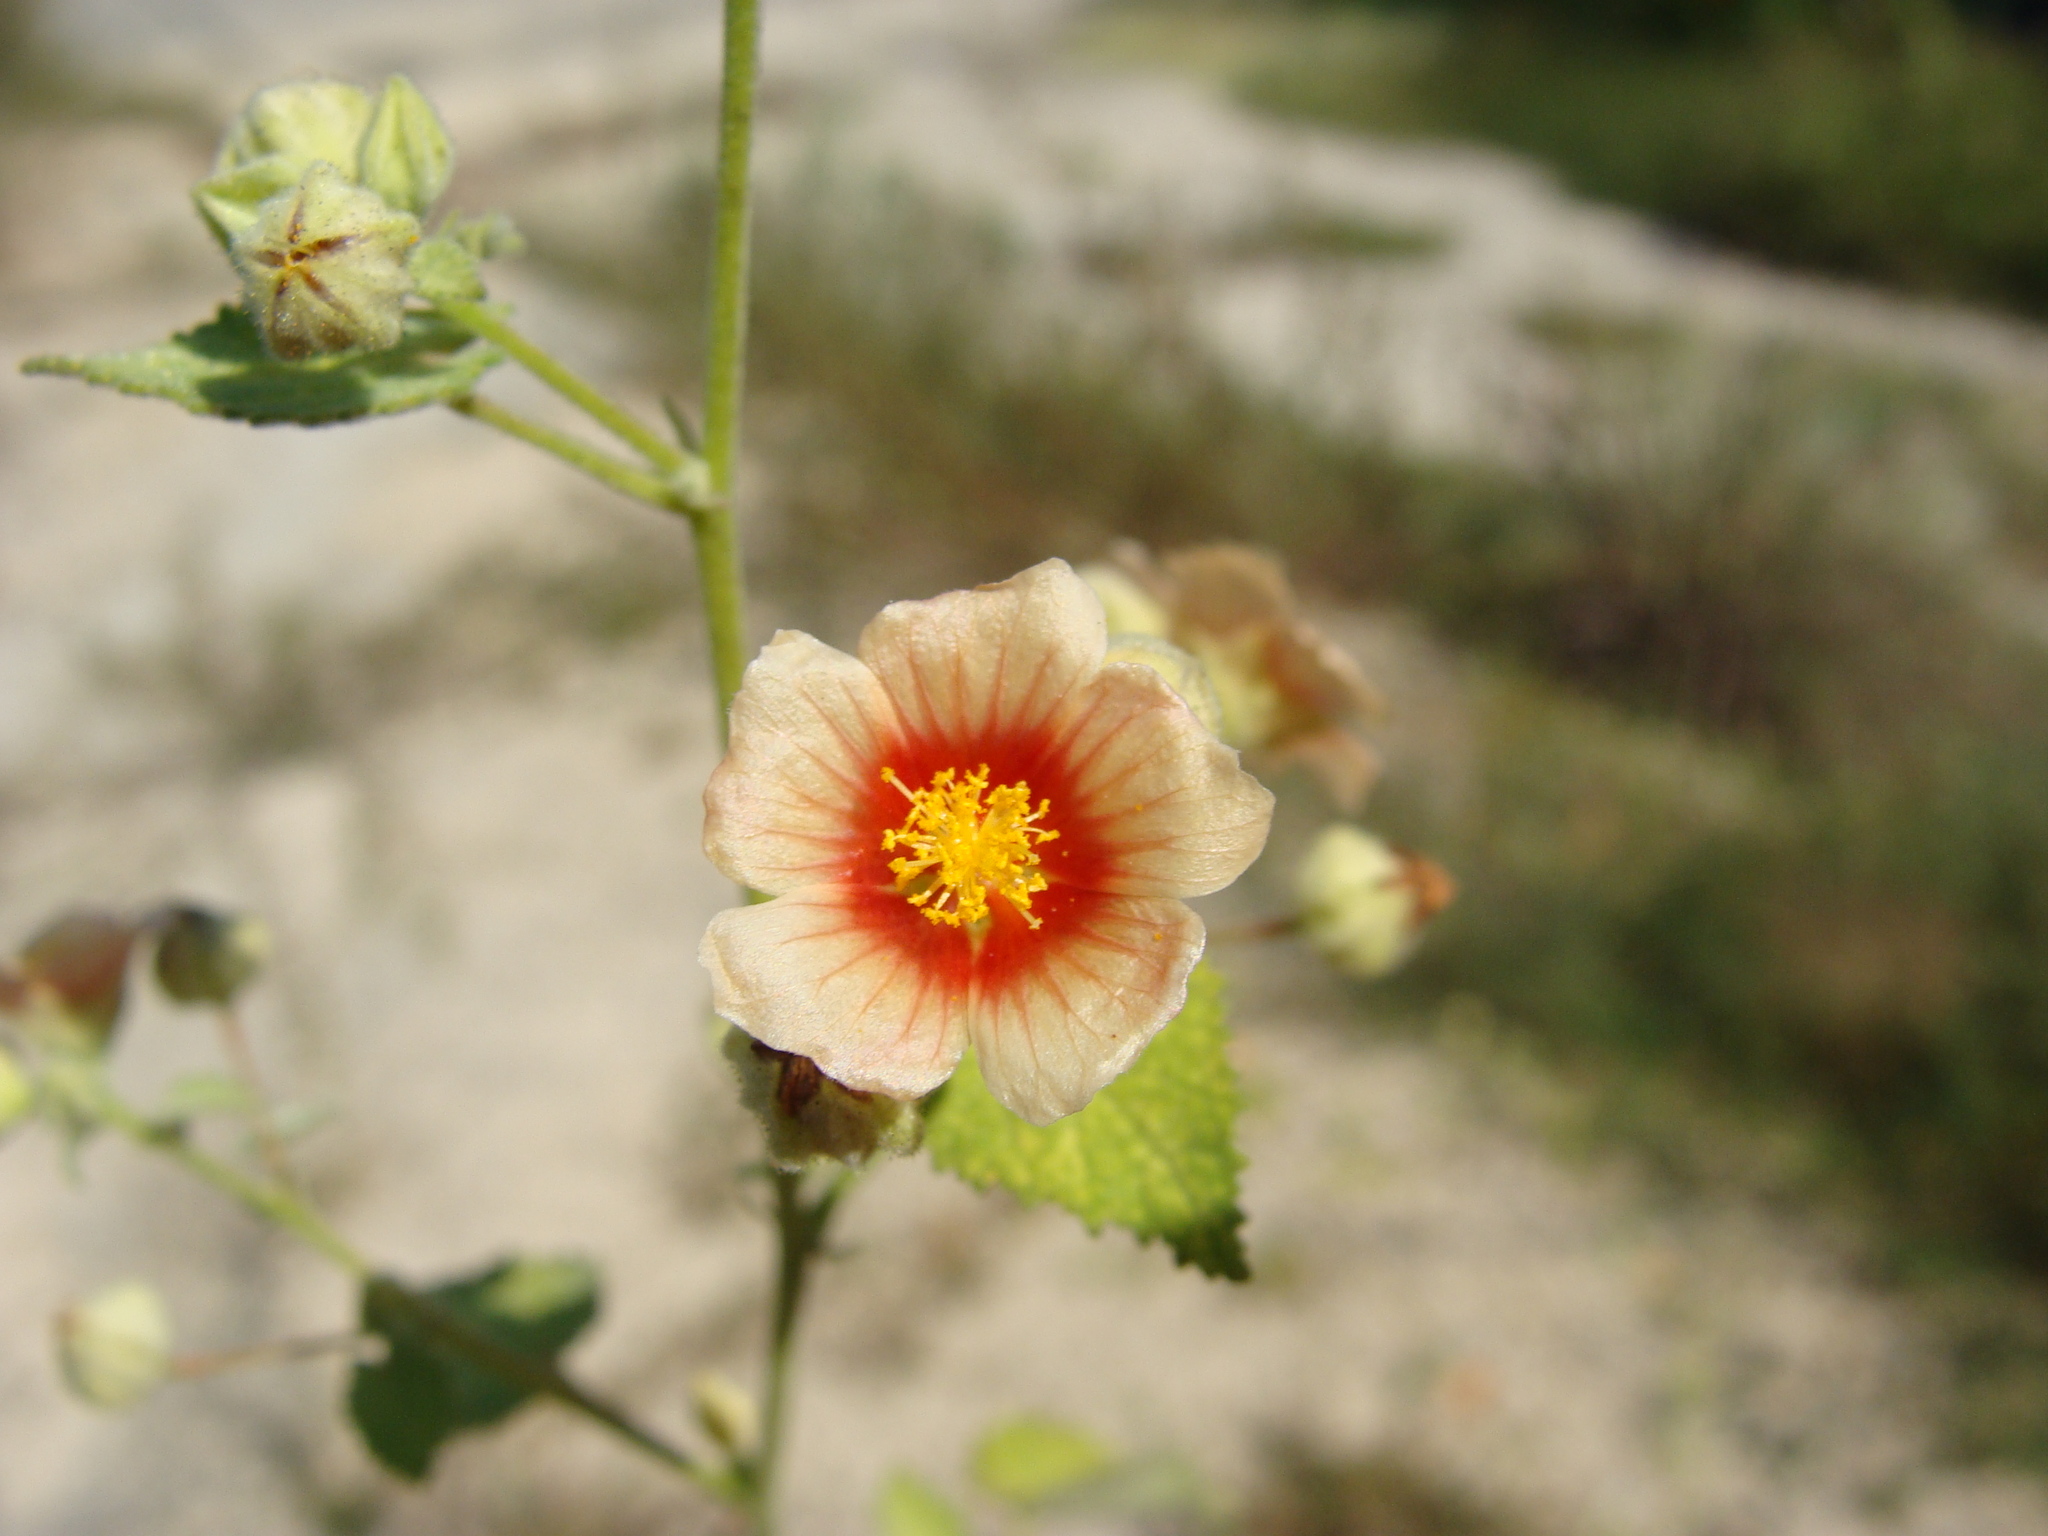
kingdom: Plantae
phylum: Tracheophyta
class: Magnoliopsida
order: Malvales
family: Malvaceae
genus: Sida
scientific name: Sida aggregata
